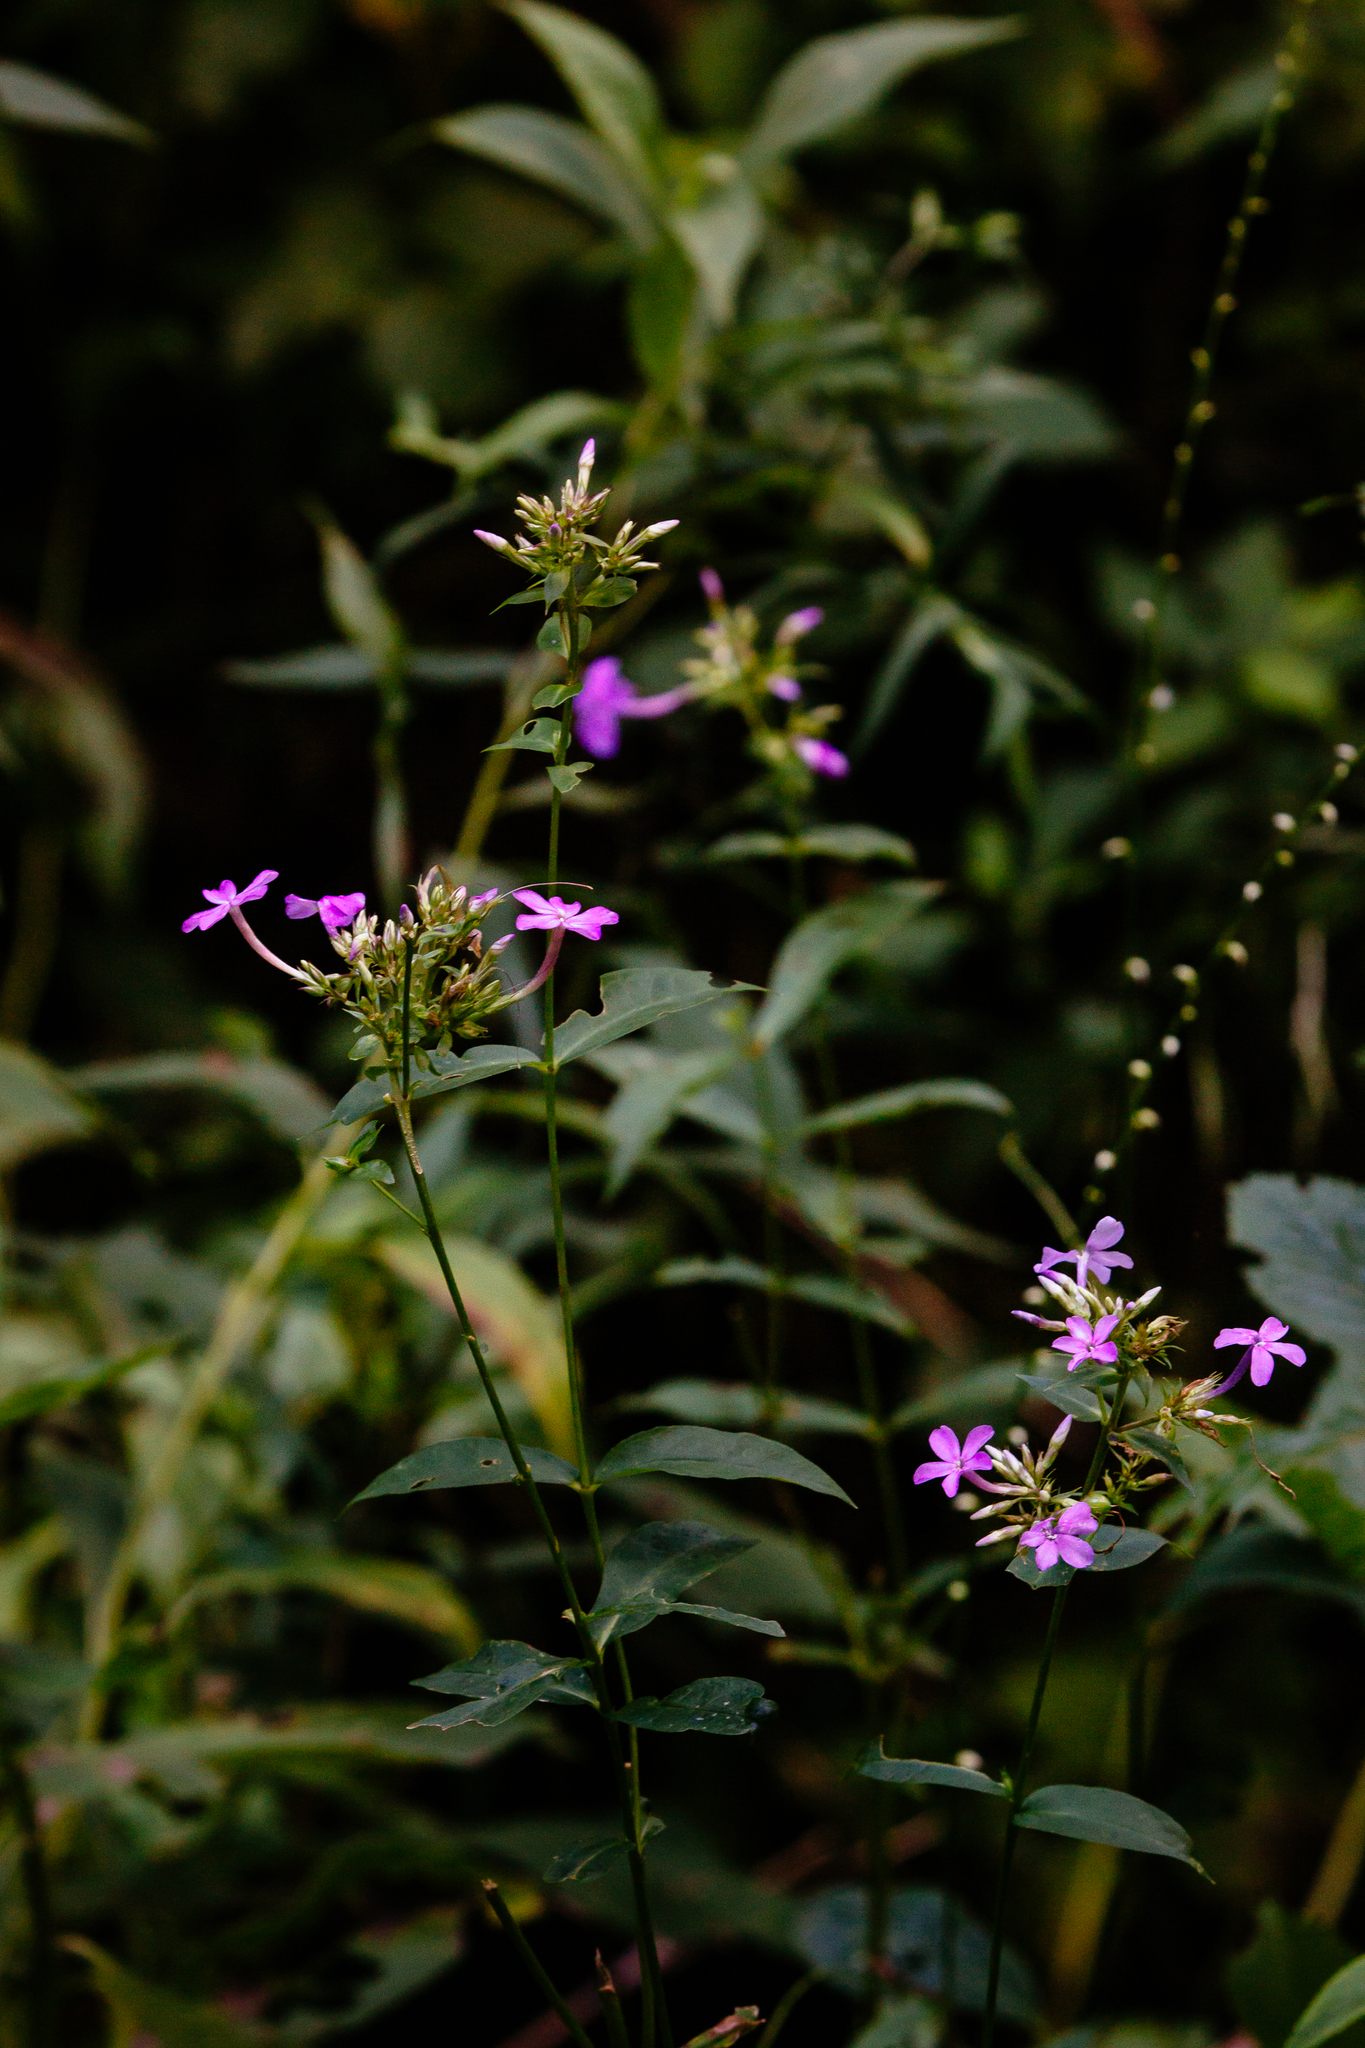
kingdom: Plantae
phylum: Tracheophyta
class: Magnoliopsida
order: Ericales
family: Polemoniaceae
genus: Phlox
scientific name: Phlox paniculata
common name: Fall phlox
